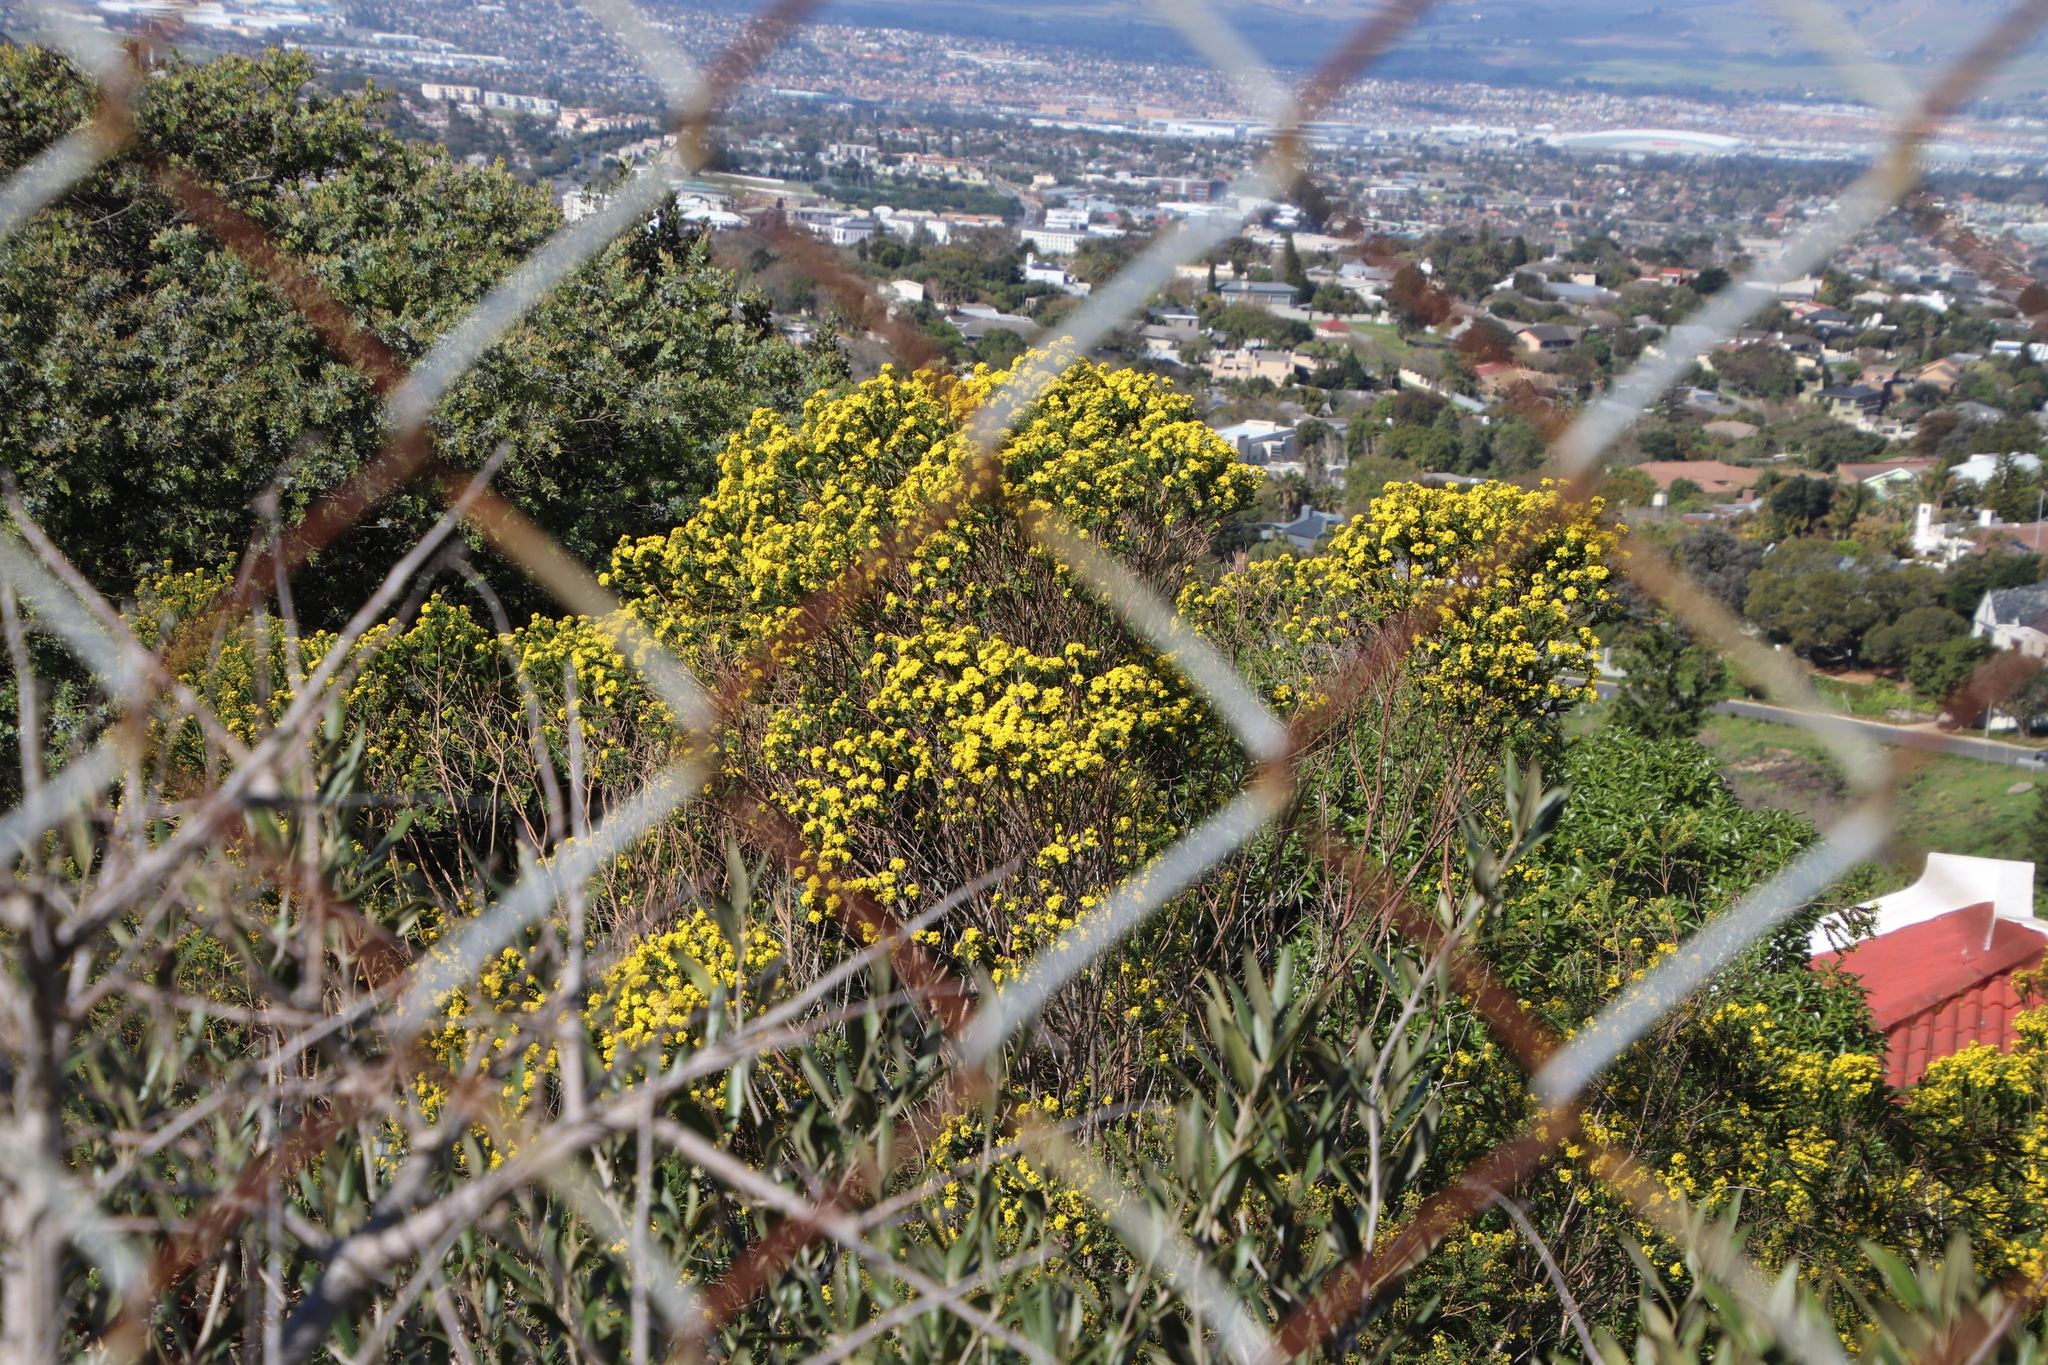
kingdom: Plantae
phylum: Tracheophyta
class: Magnoliopsida
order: Asterales
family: Asteraceae
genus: Euryops
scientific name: Euryops virgineus
